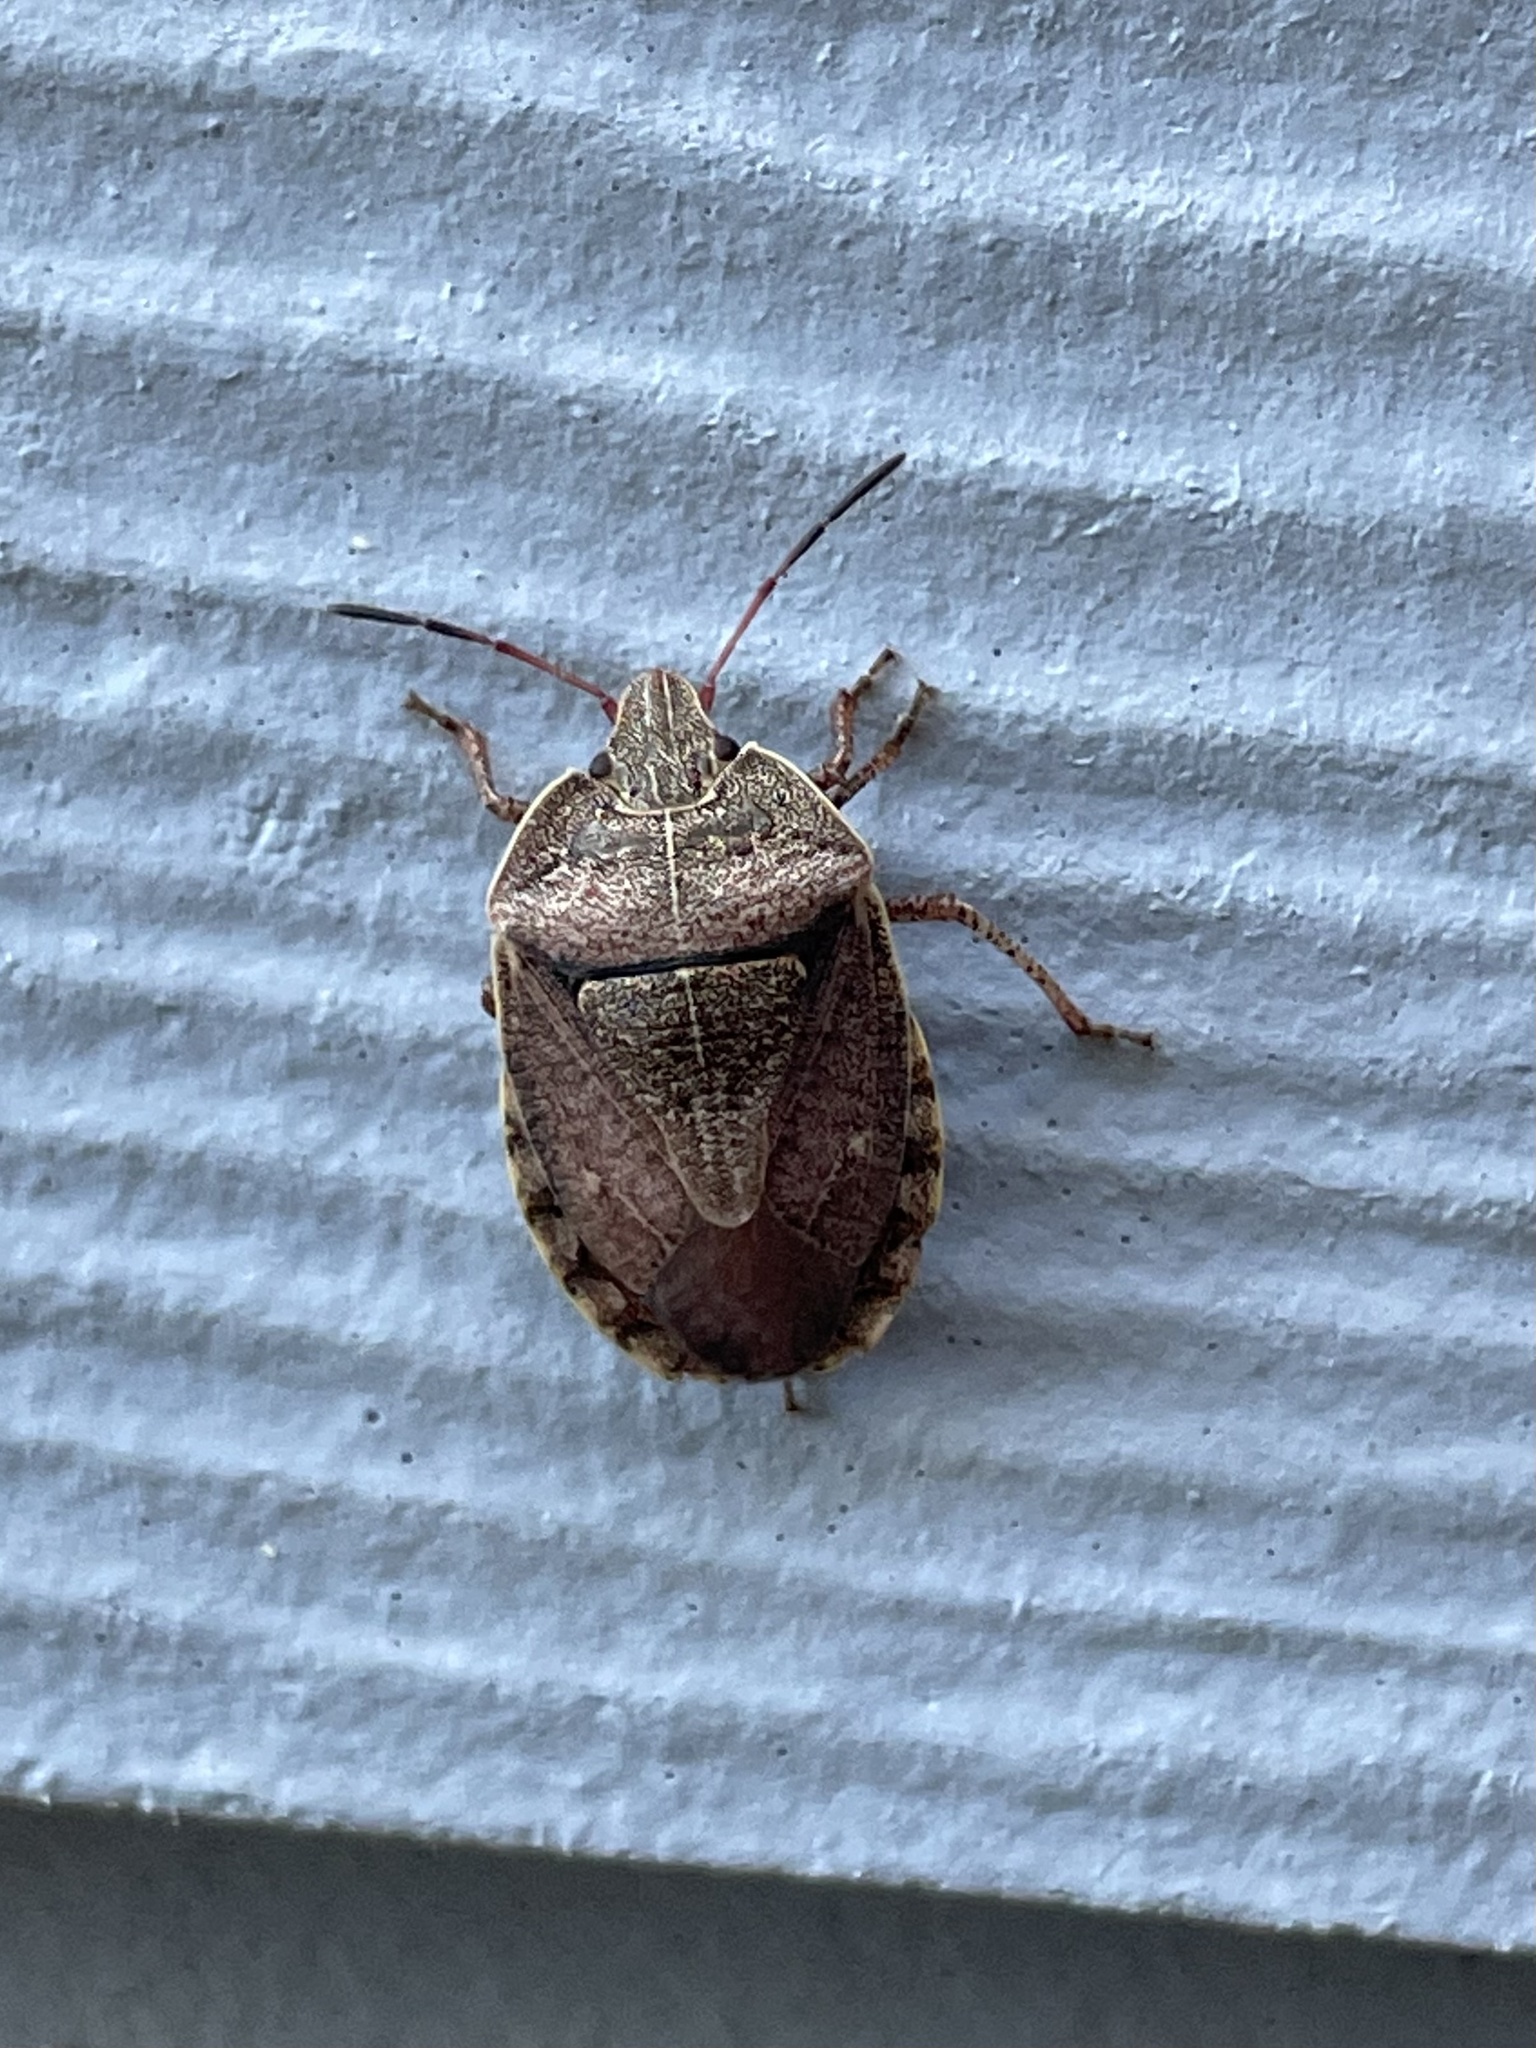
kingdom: Animalia
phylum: Arthropoda
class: Insecta
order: Hemiptera
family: Pentatomidae
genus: Menecles
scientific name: Menecles insertus
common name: Elf shoe stink bug
